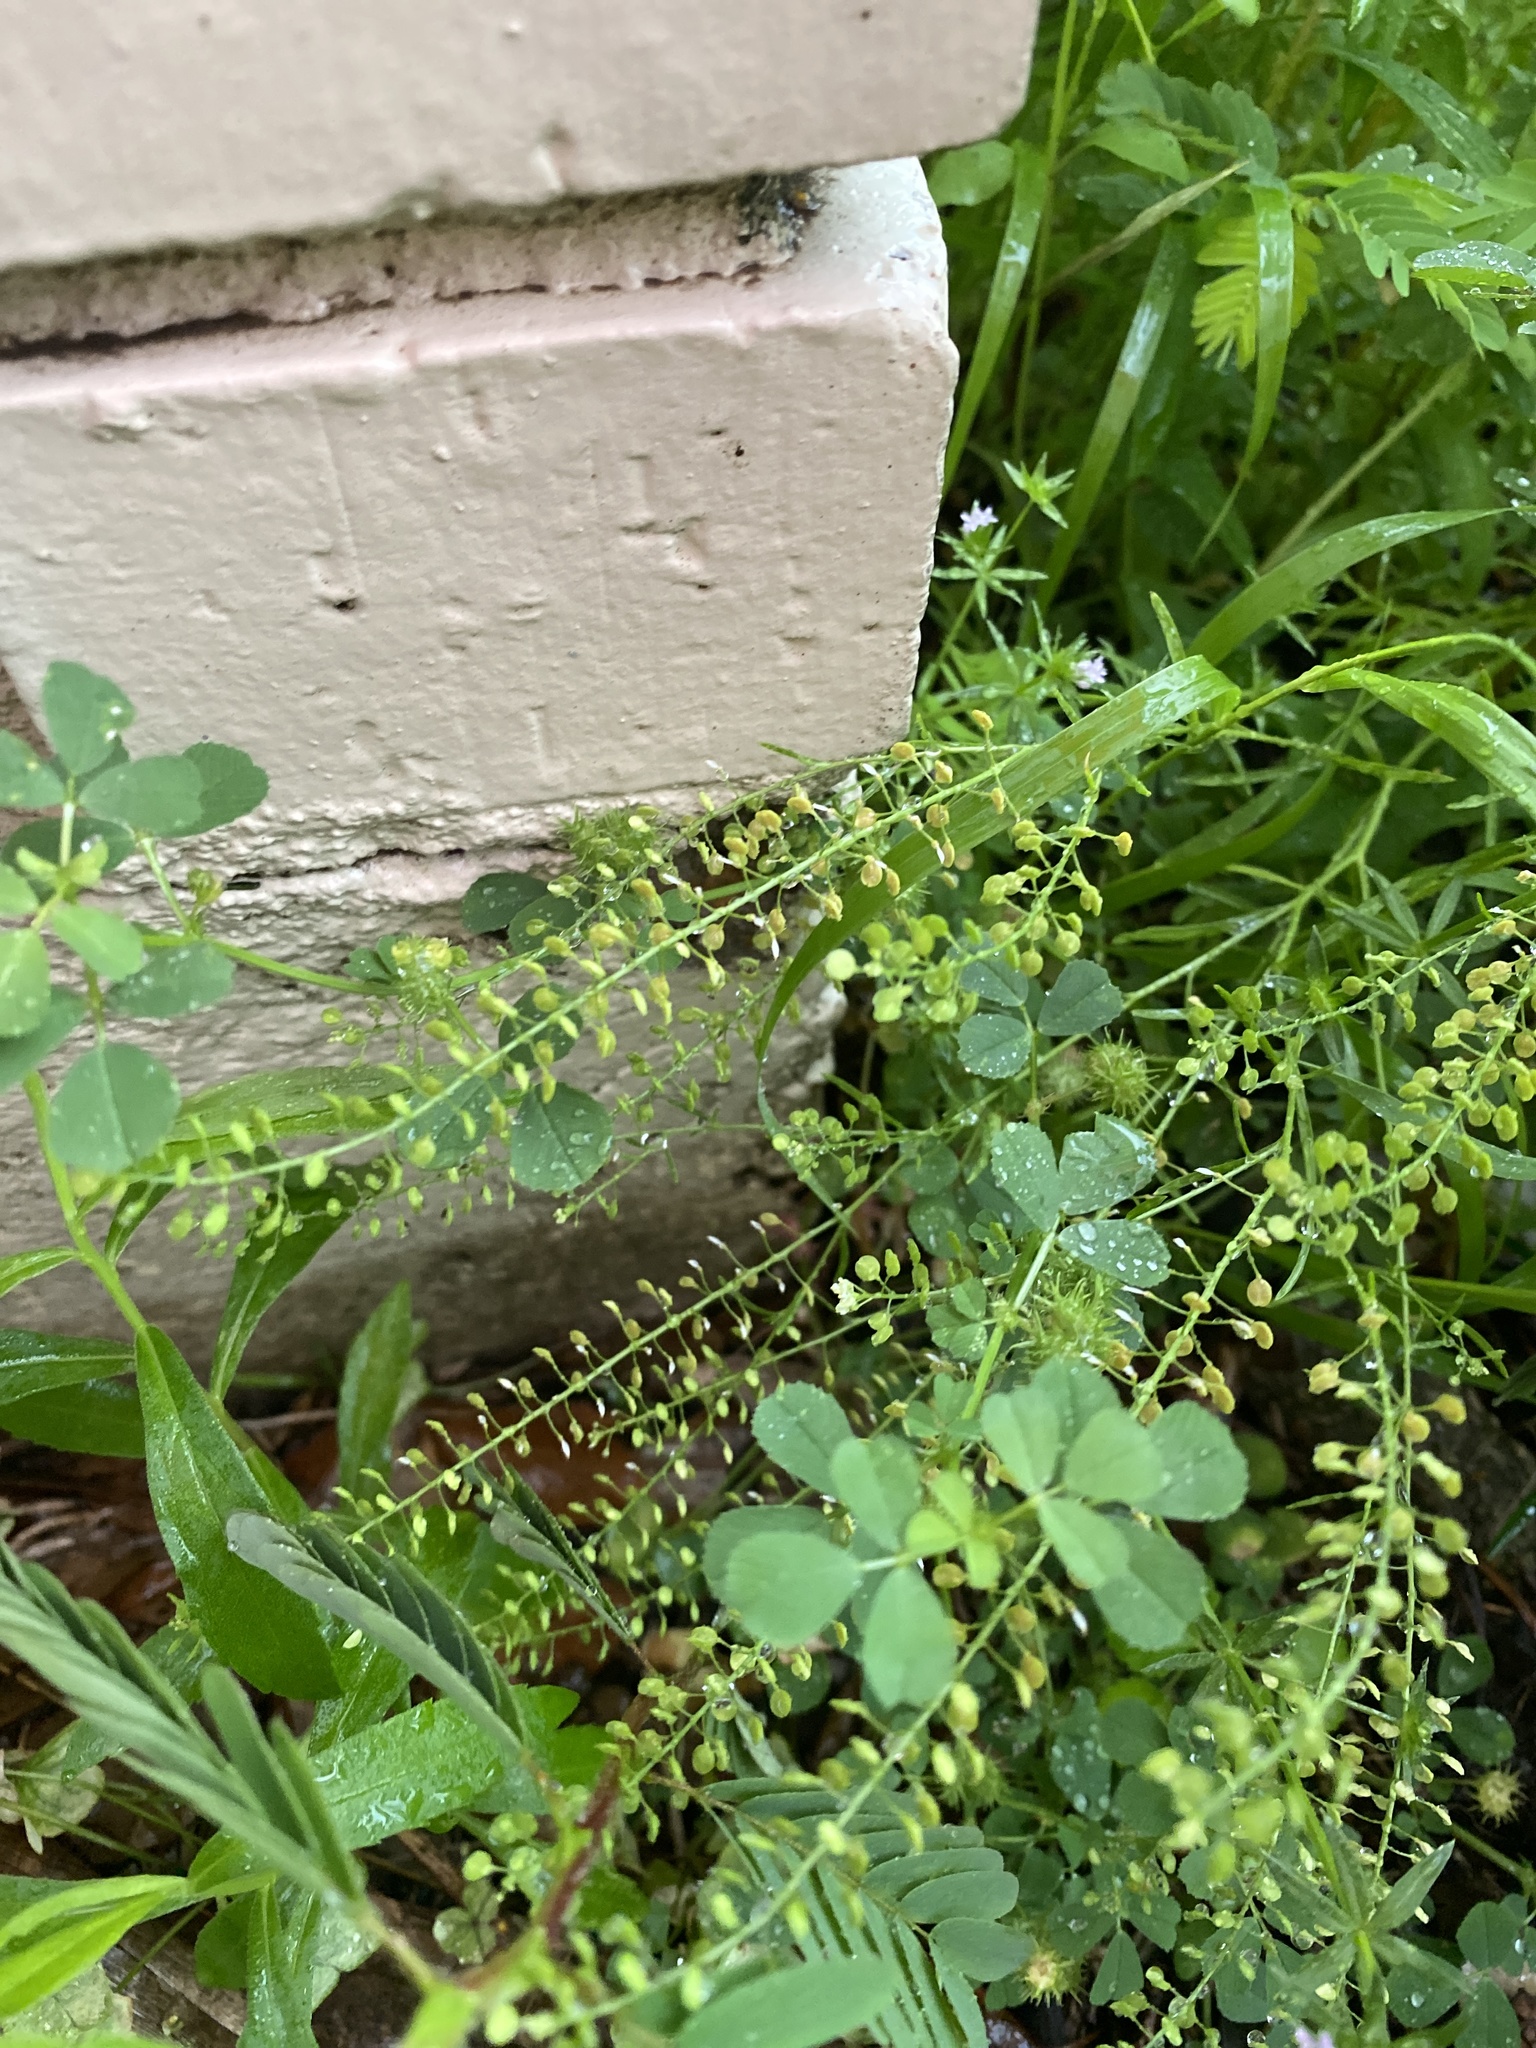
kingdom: Plantae
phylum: Tracheophyta
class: Magnoliopsida
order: Brassicales
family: Brassicaceae
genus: Lepidium
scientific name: Lepidium virginicum
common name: Least pepperwort
